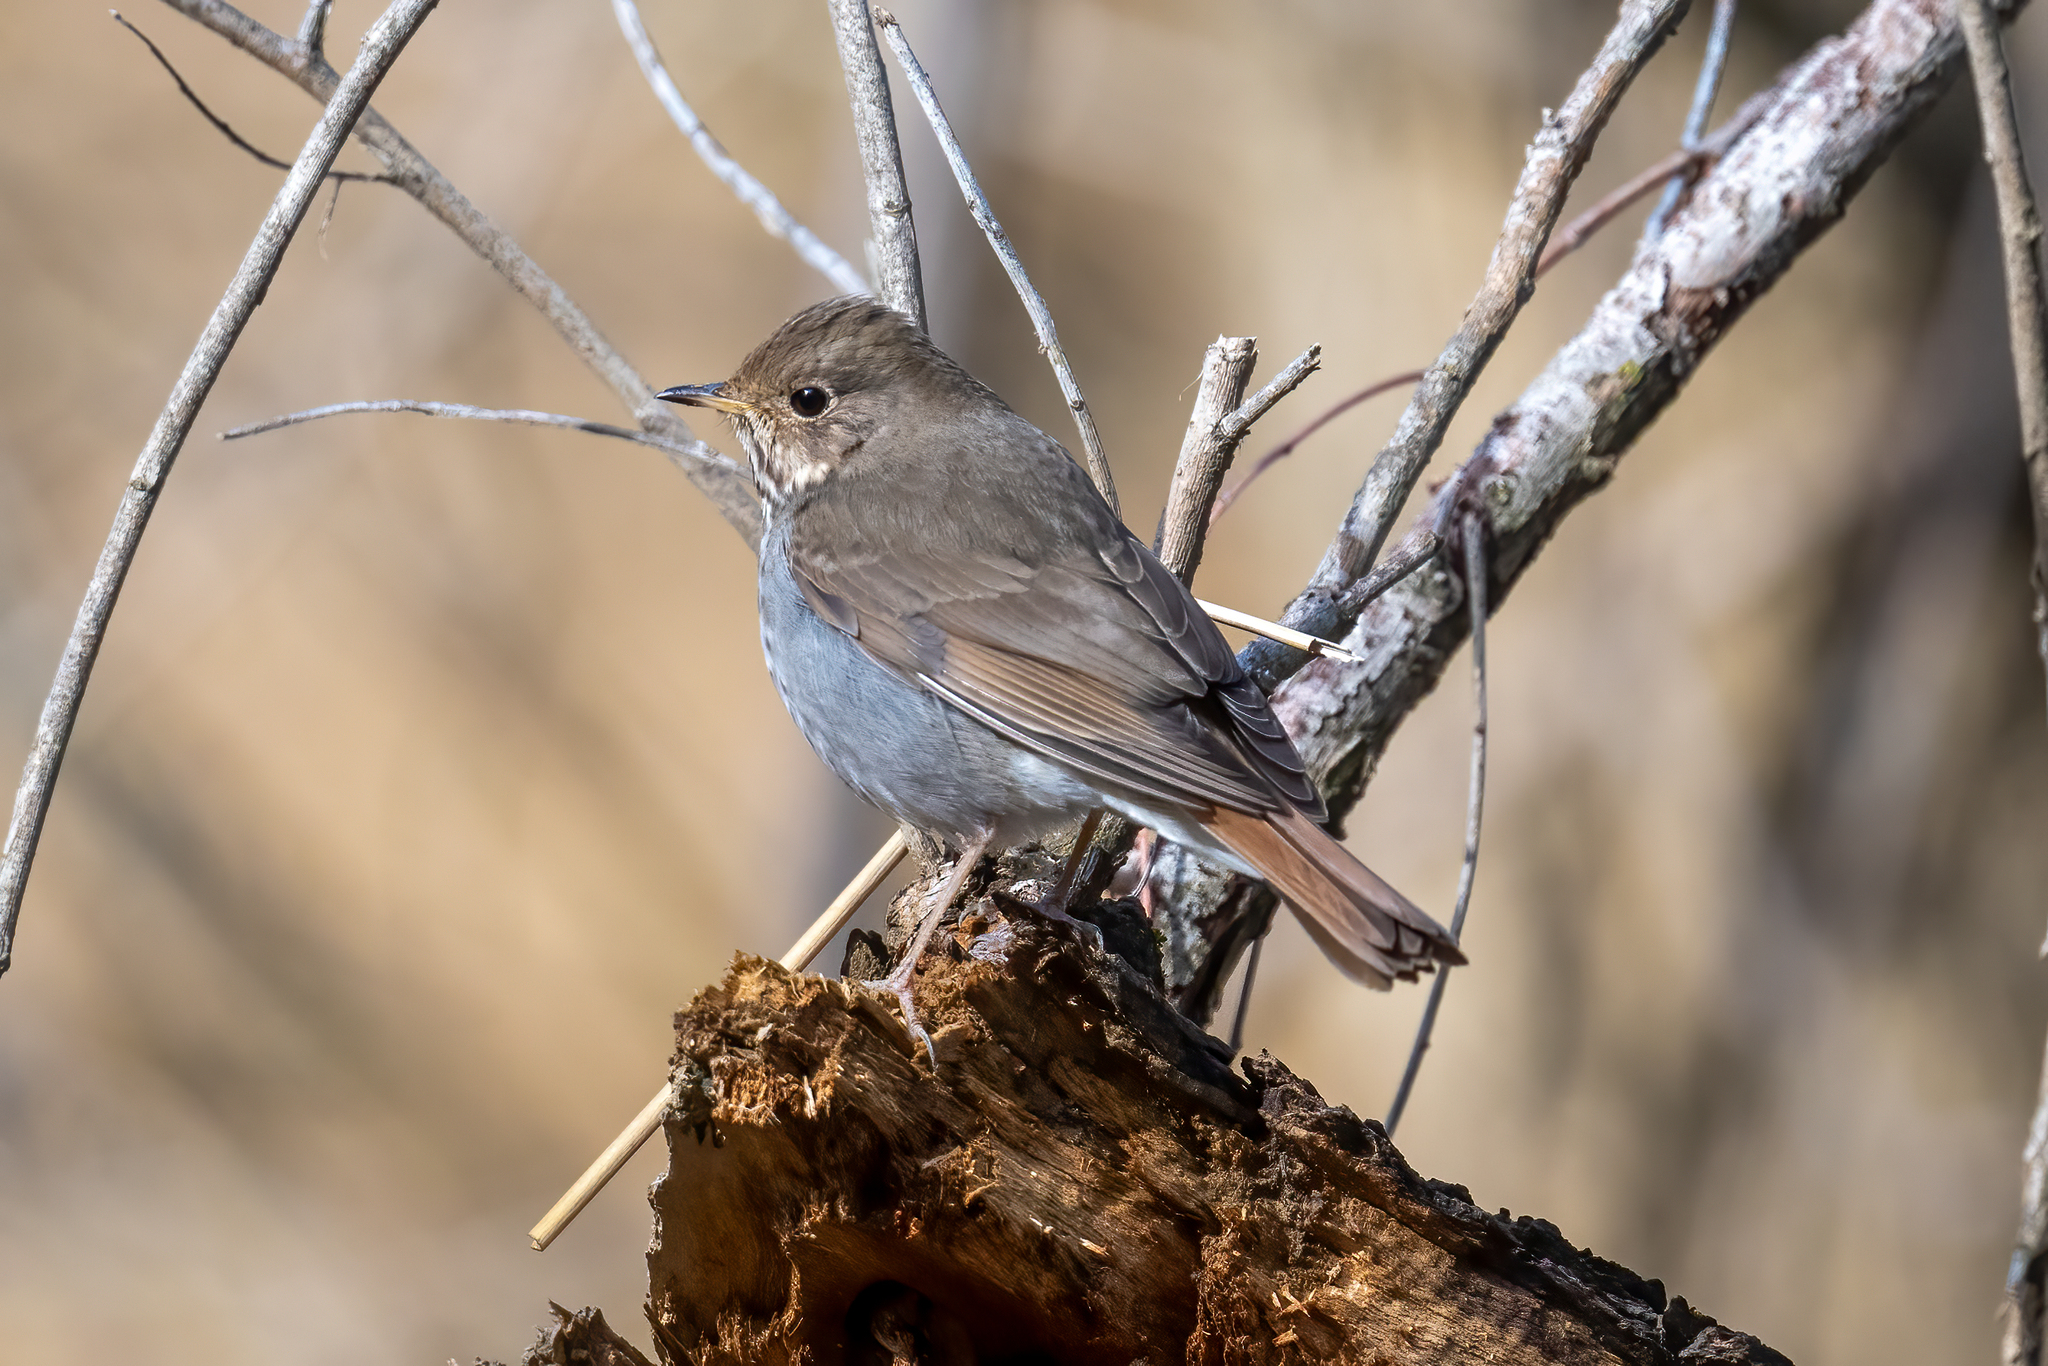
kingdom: Animalia
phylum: Chordata
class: Aves
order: Passeriformes
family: Turdidae
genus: Catharus
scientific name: Catharus guttatus
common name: Hermit thrush
